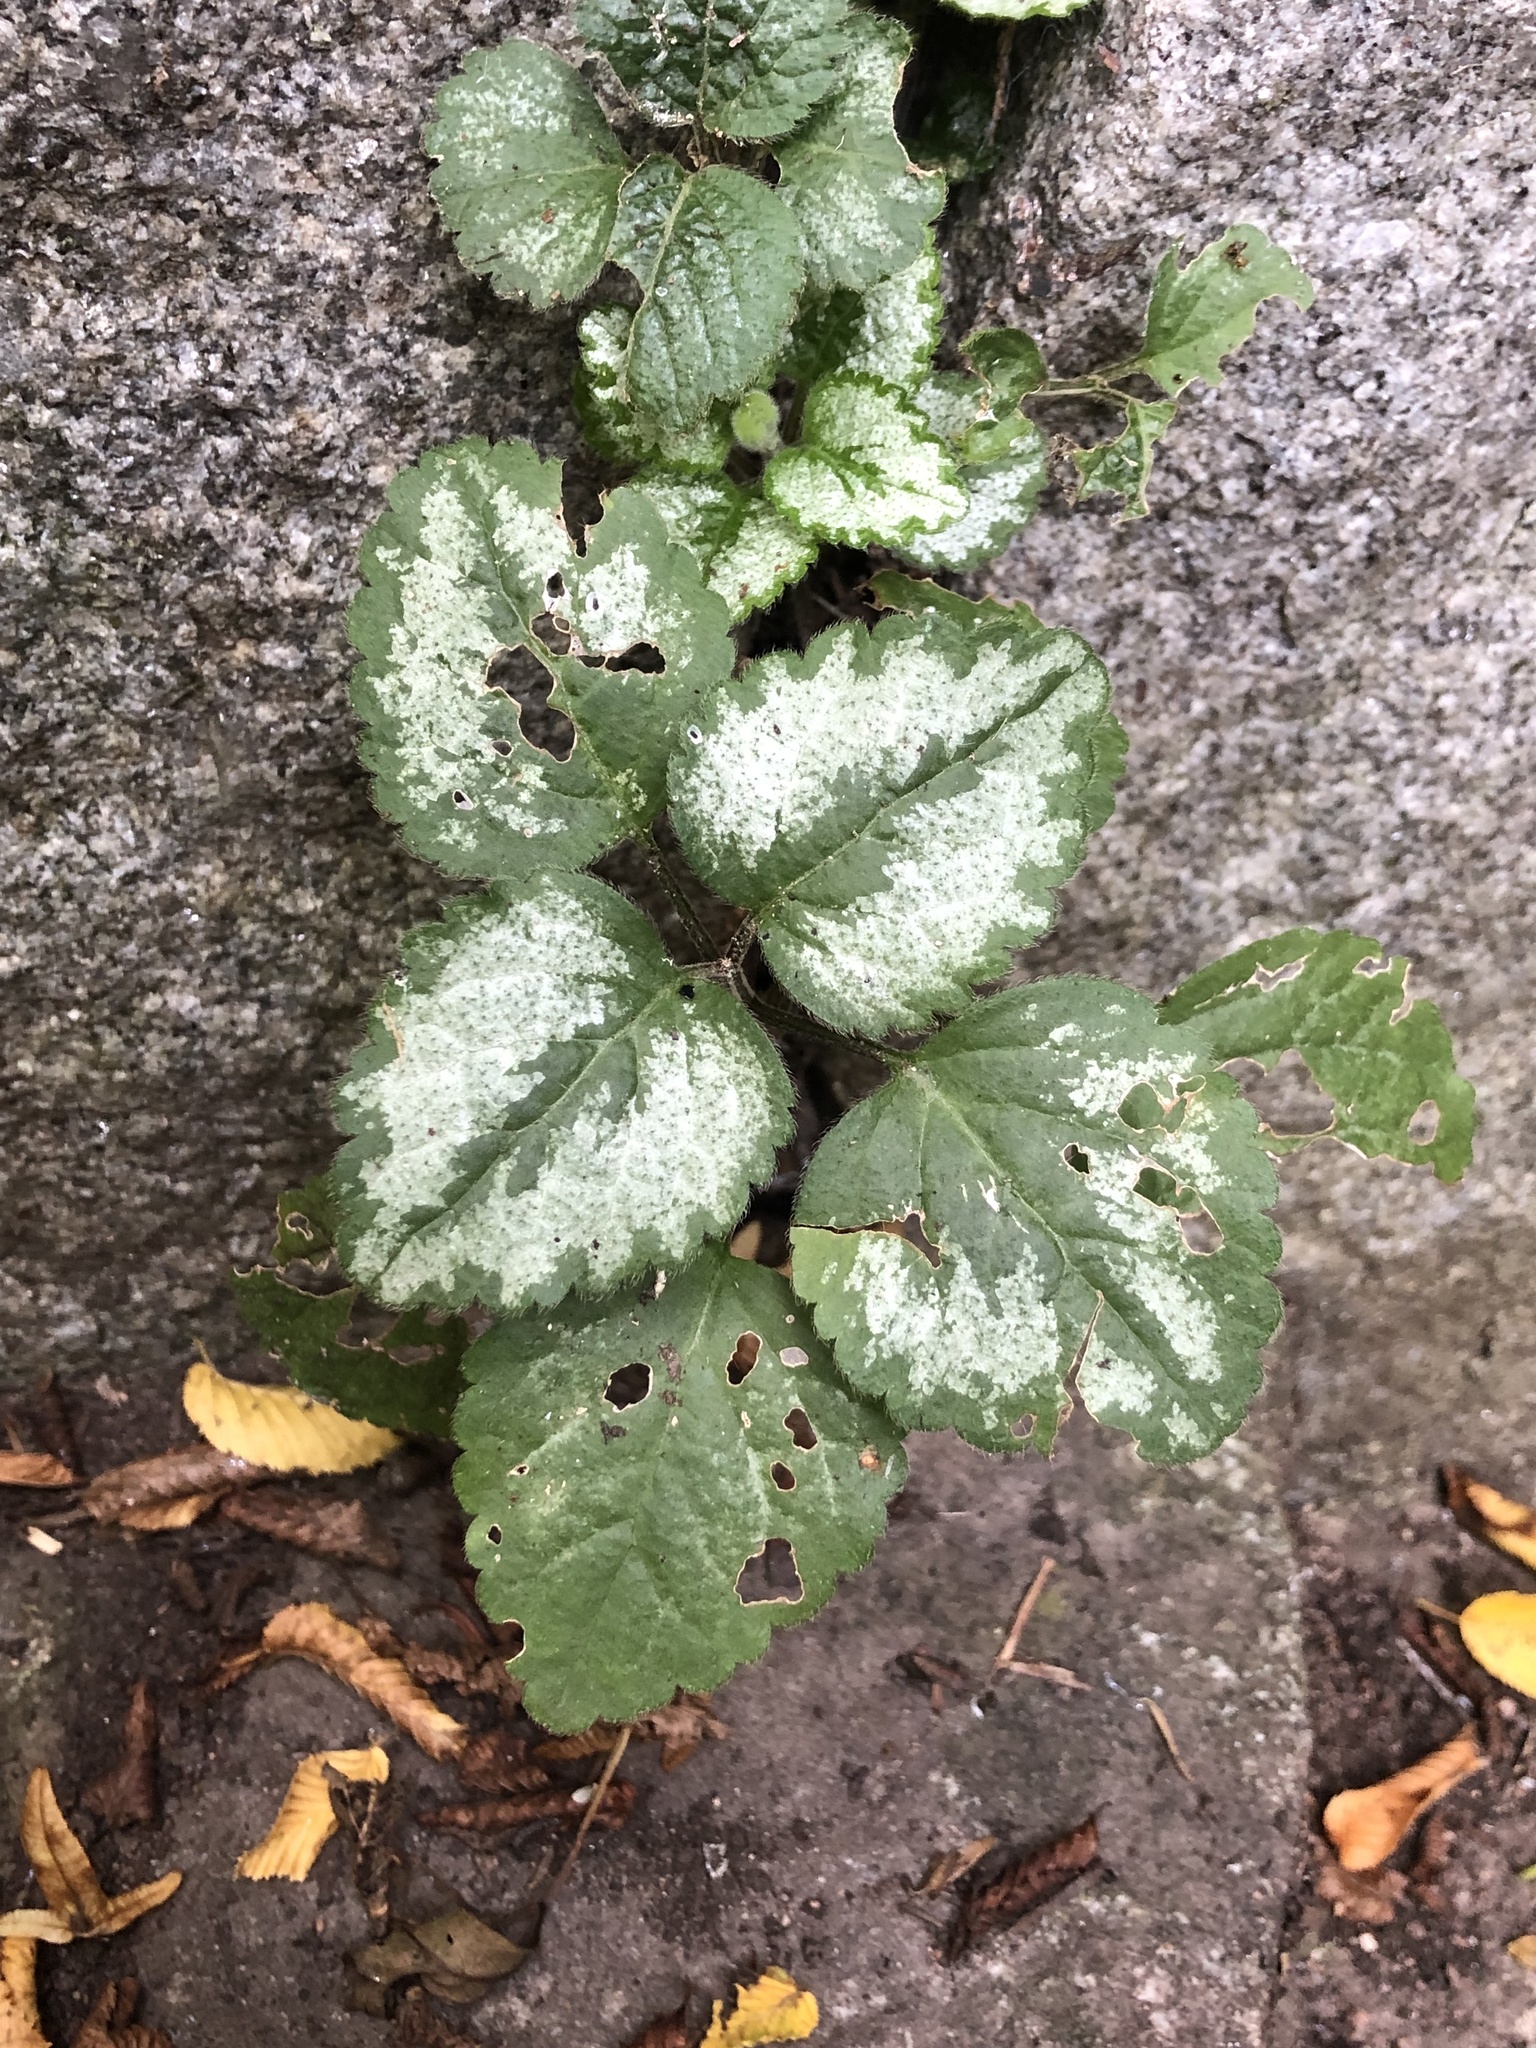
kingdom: Plantae
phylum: Tracheophyta
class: Magnoliopsida
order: Lamiales
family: Lamiaceae
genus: Lamium
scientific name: Lamium galeobdolon
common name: Yellow archangel
